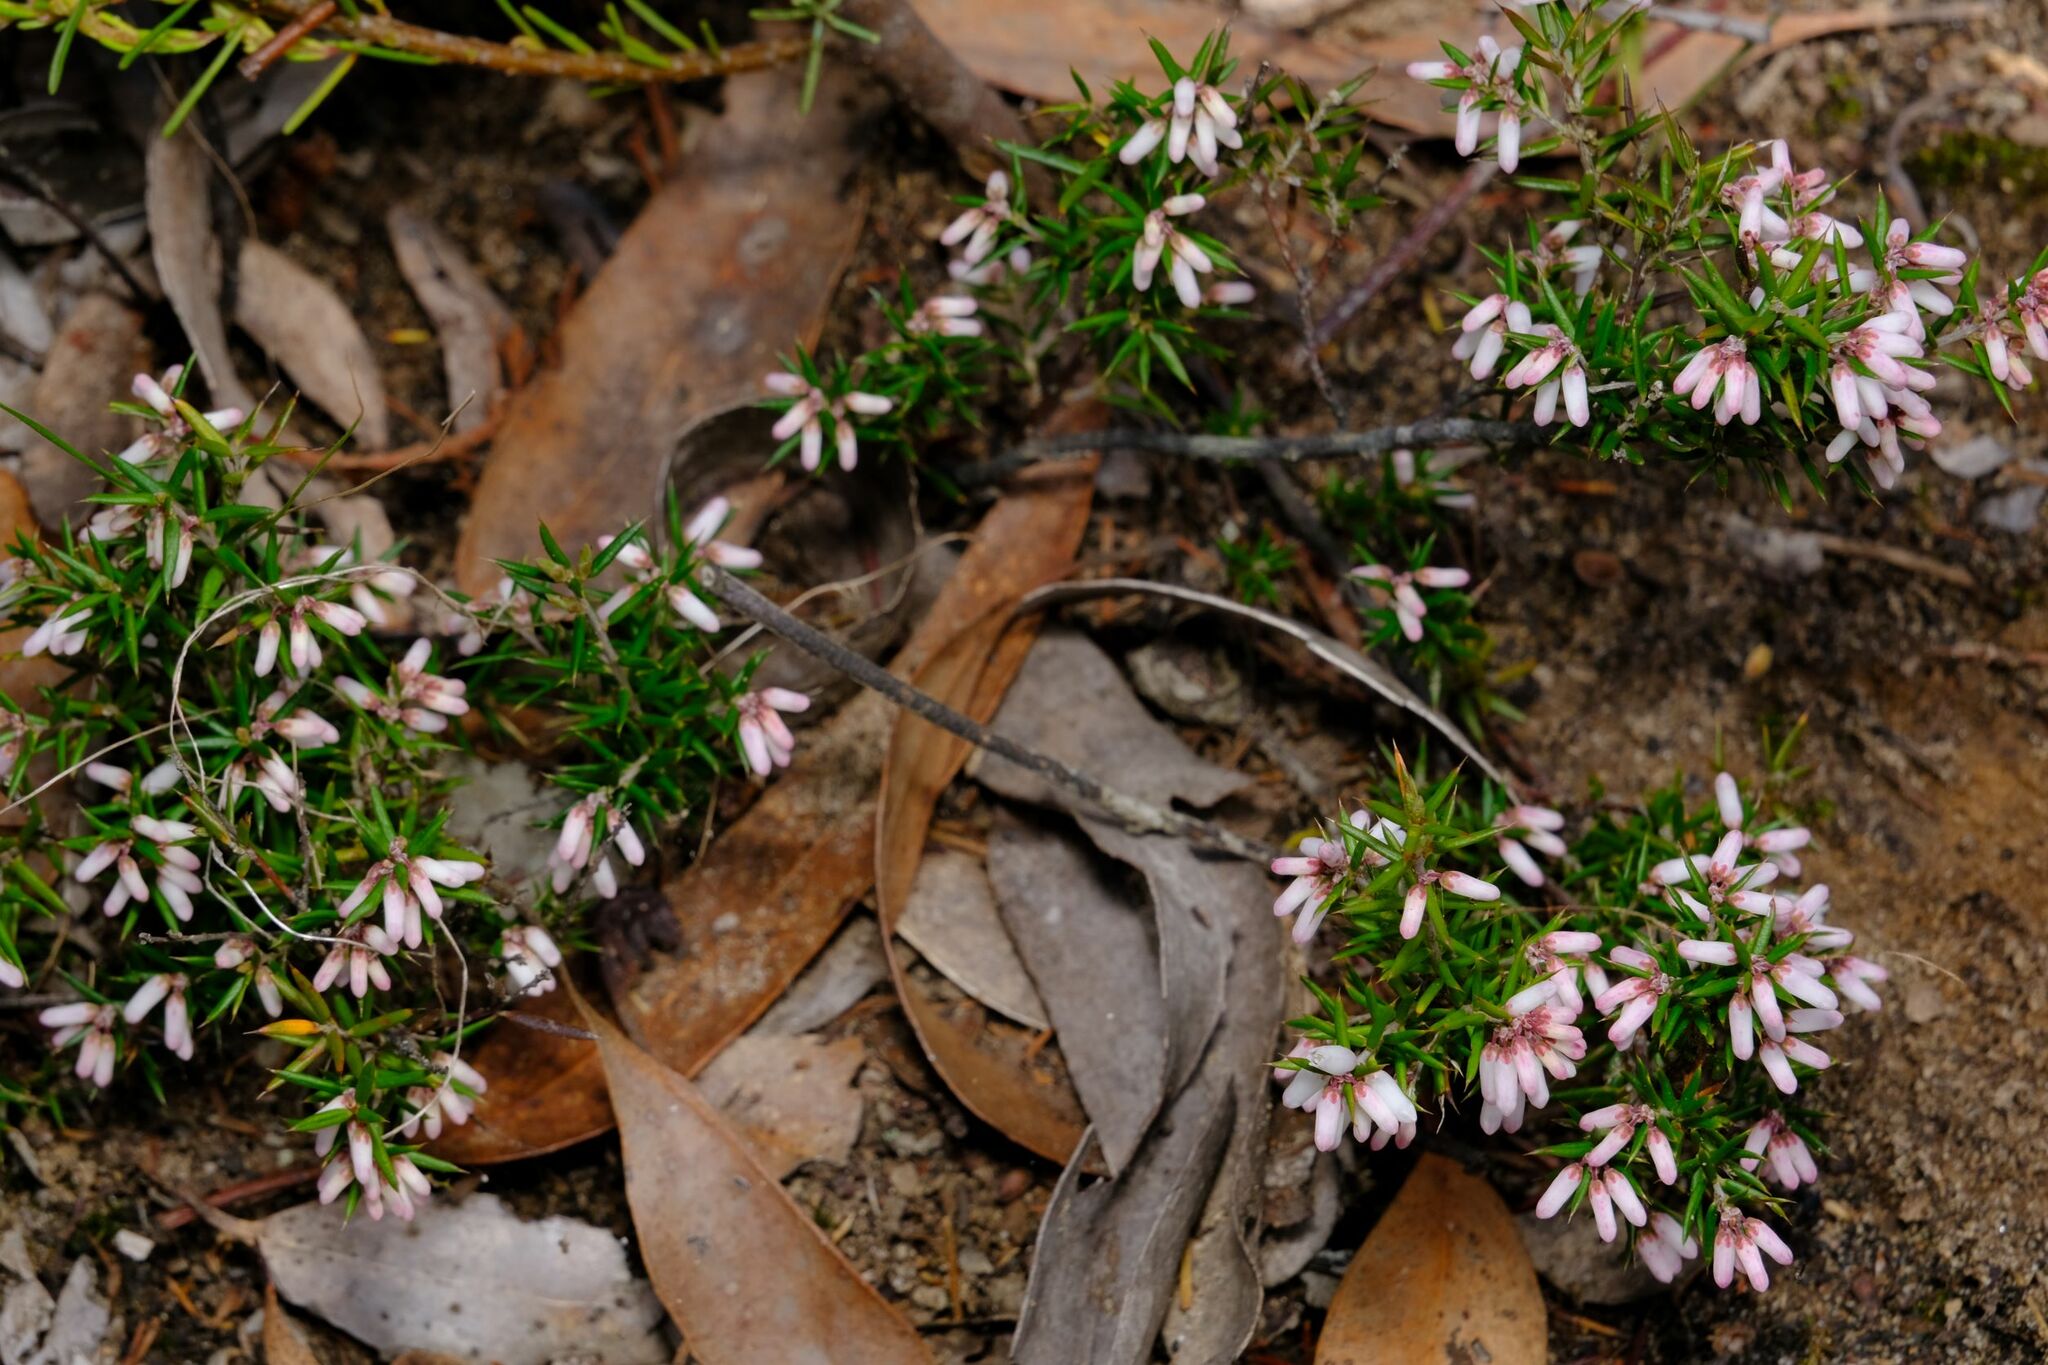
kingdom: Plantae
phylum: Tracheophyta
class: Magnoliopsida
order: Ericales
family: Ericaceae
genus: Lissanthe
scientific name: Lissanthe strigosa
